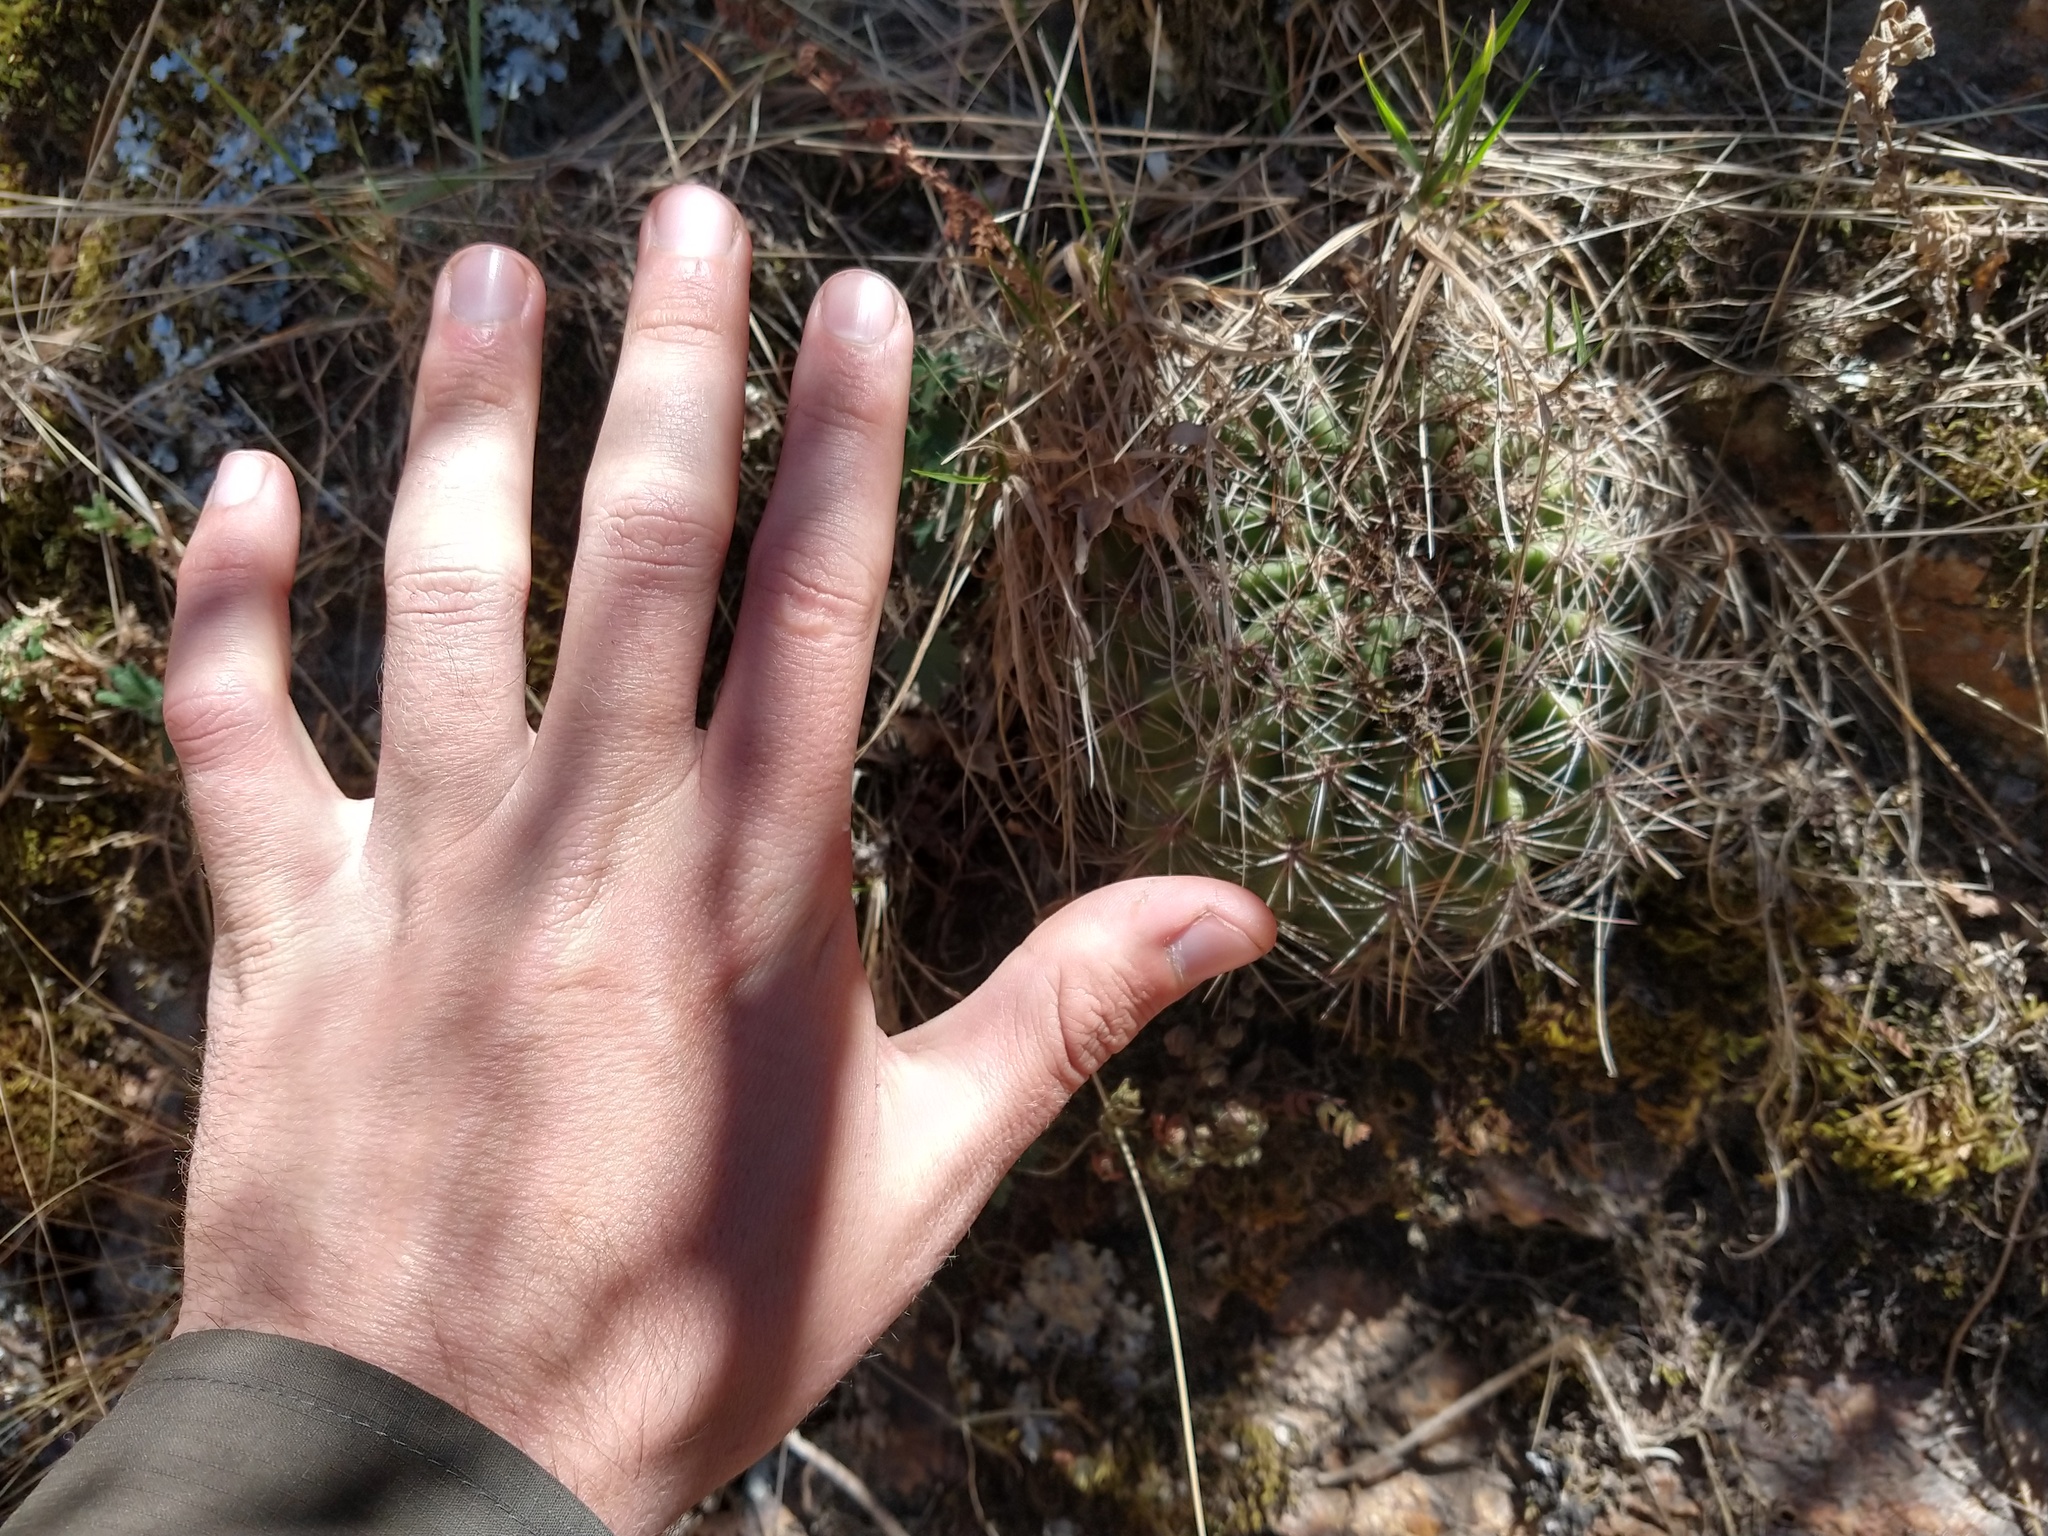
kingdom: Plantae
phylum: Tracheophyta
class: Magnoliopsida
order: Caryophyllales
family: Cactaceae
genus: Soehrensia
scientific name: Soehrensia bruchii
